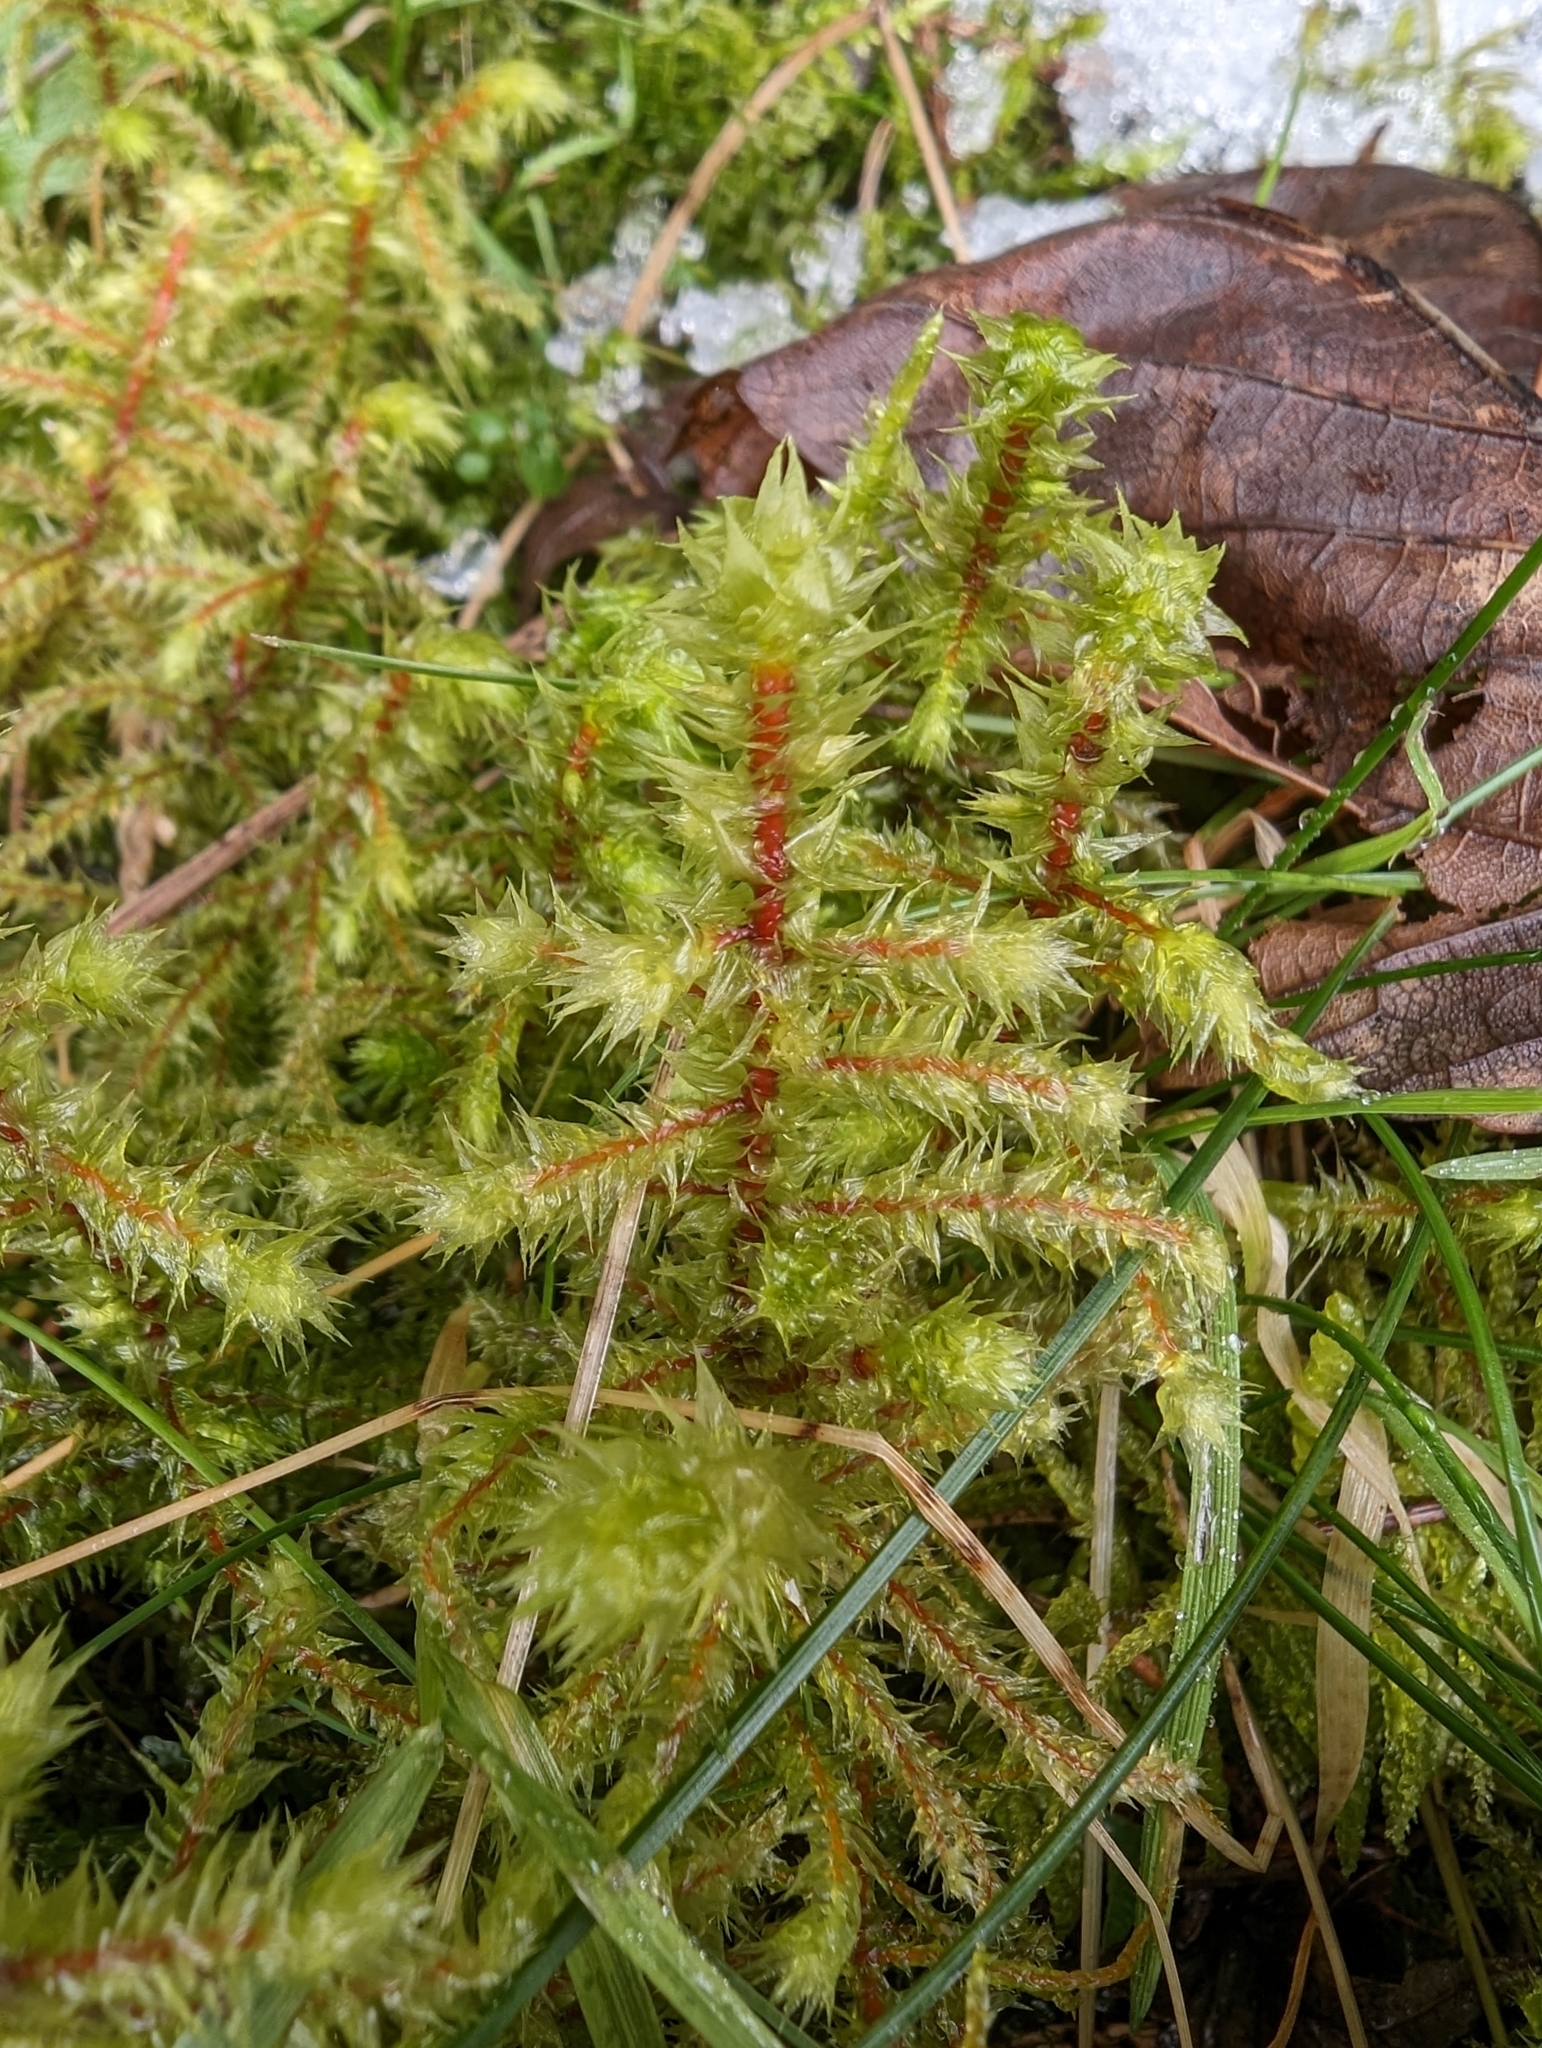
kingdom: Plantae
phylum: Bryophyta
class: Bryopsida
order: Hypnales
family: Hylocomiaceae
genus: Hylocomiadelphus
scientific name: Hylocomiadelphus triquetrus
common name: Rough goose neck moss
